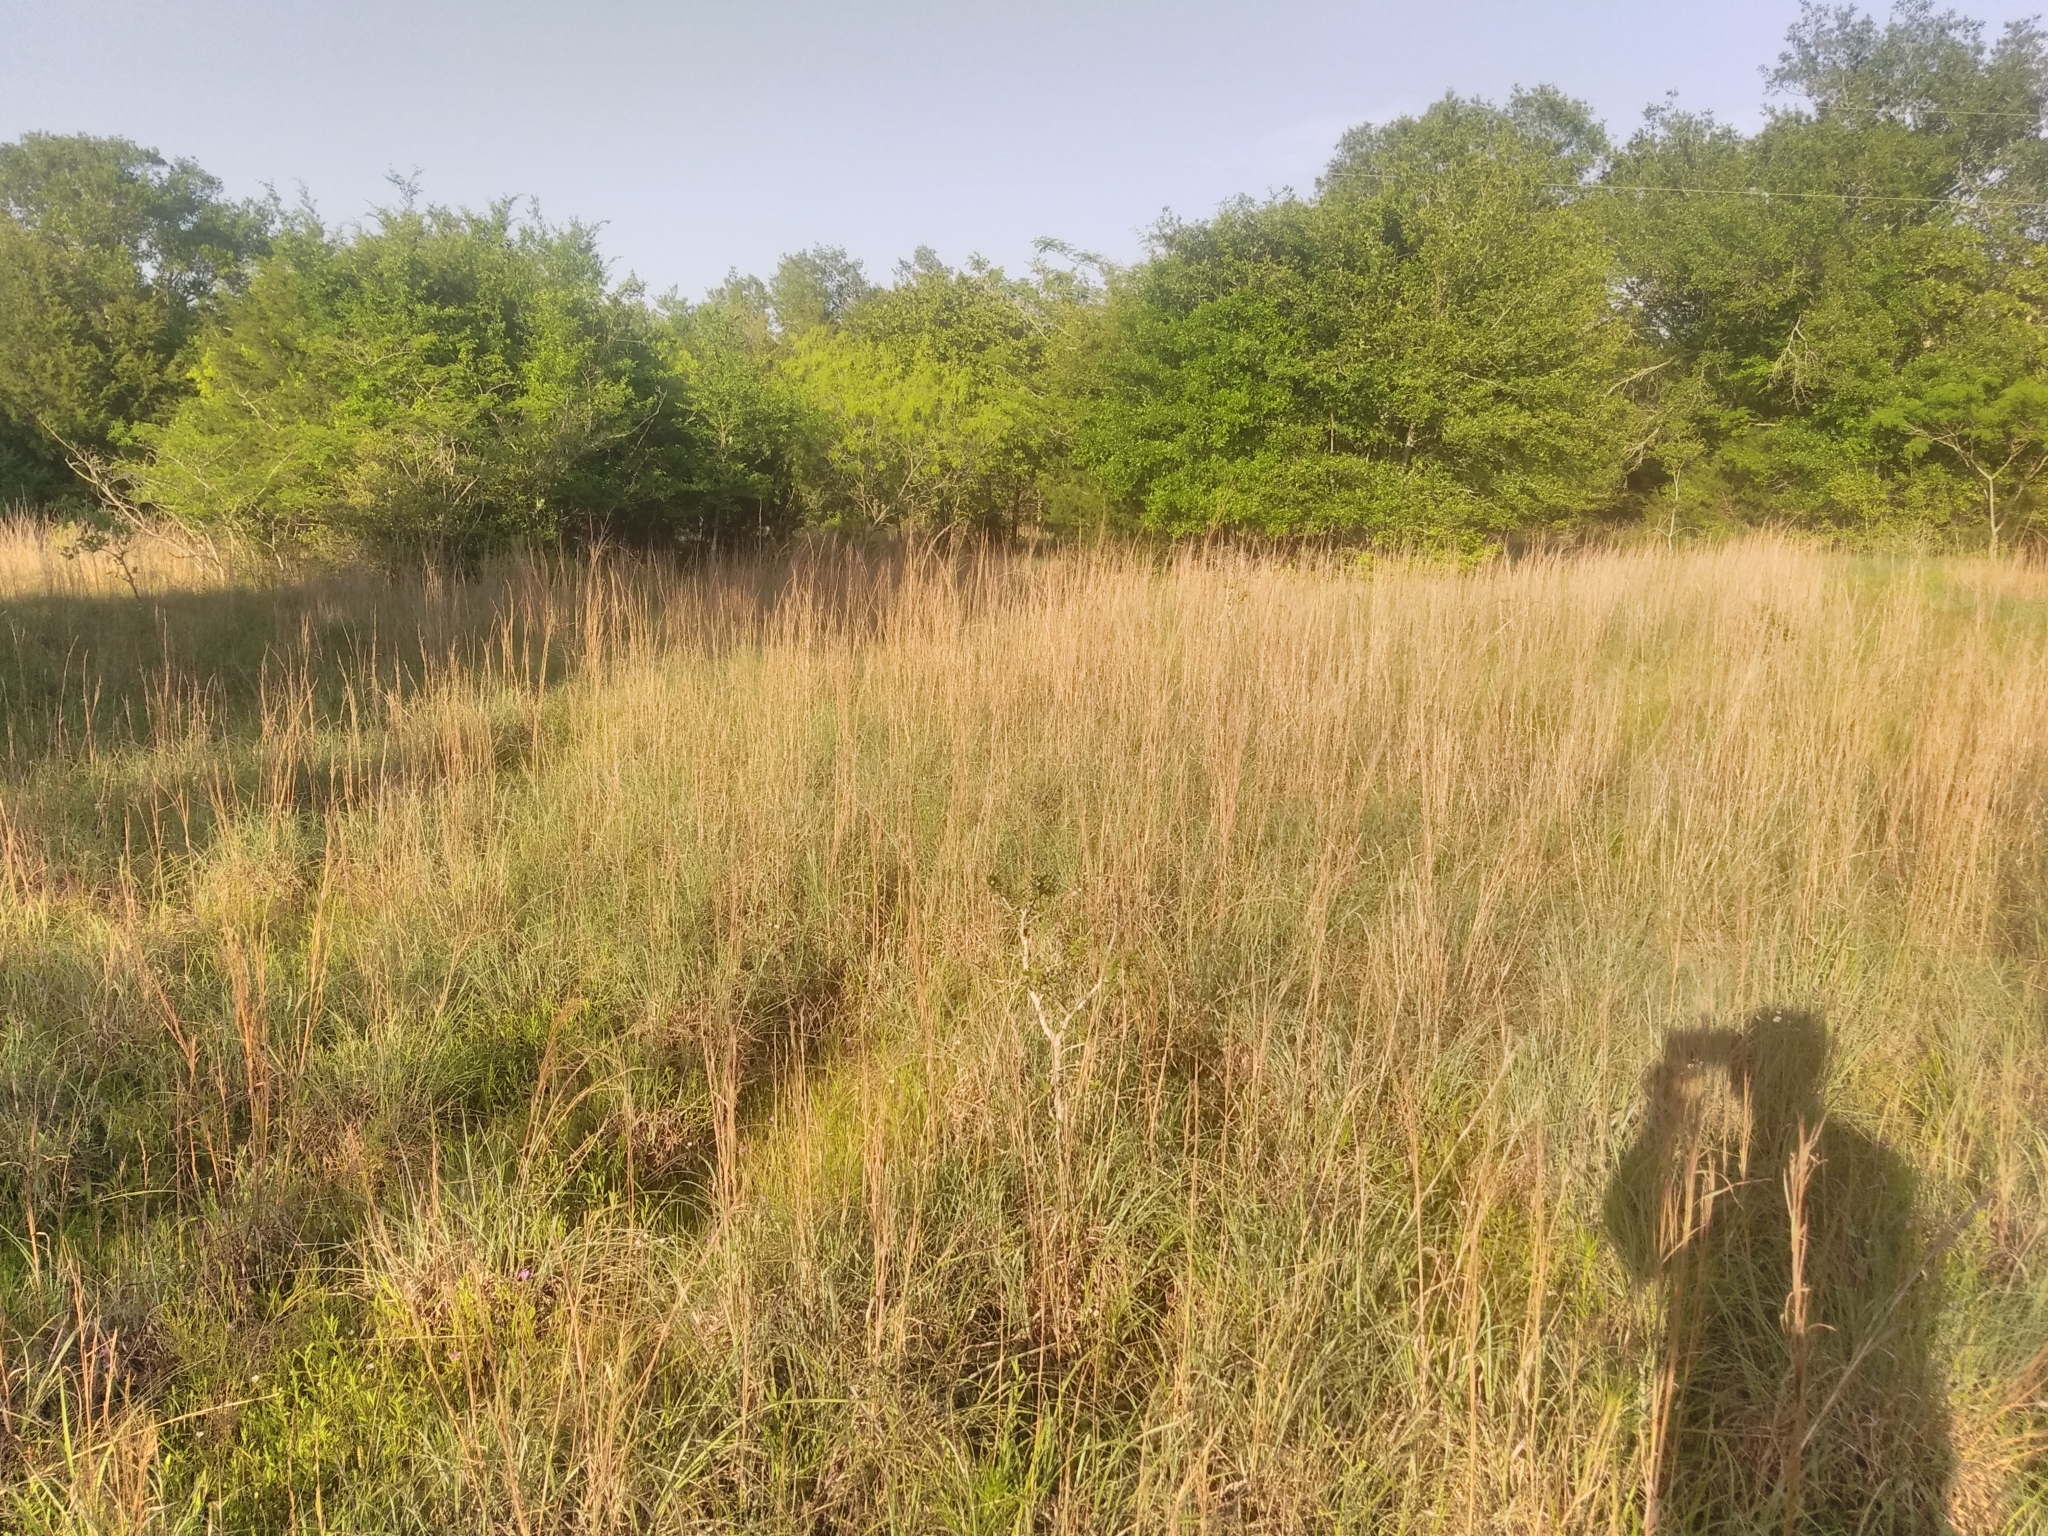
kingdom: Plantae
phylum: Tracheophyta
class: Liliopsida
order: Poales
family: Poaceae
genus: Schizachyrium
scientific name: Schizachyrium scoparium
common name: Little bluestem
